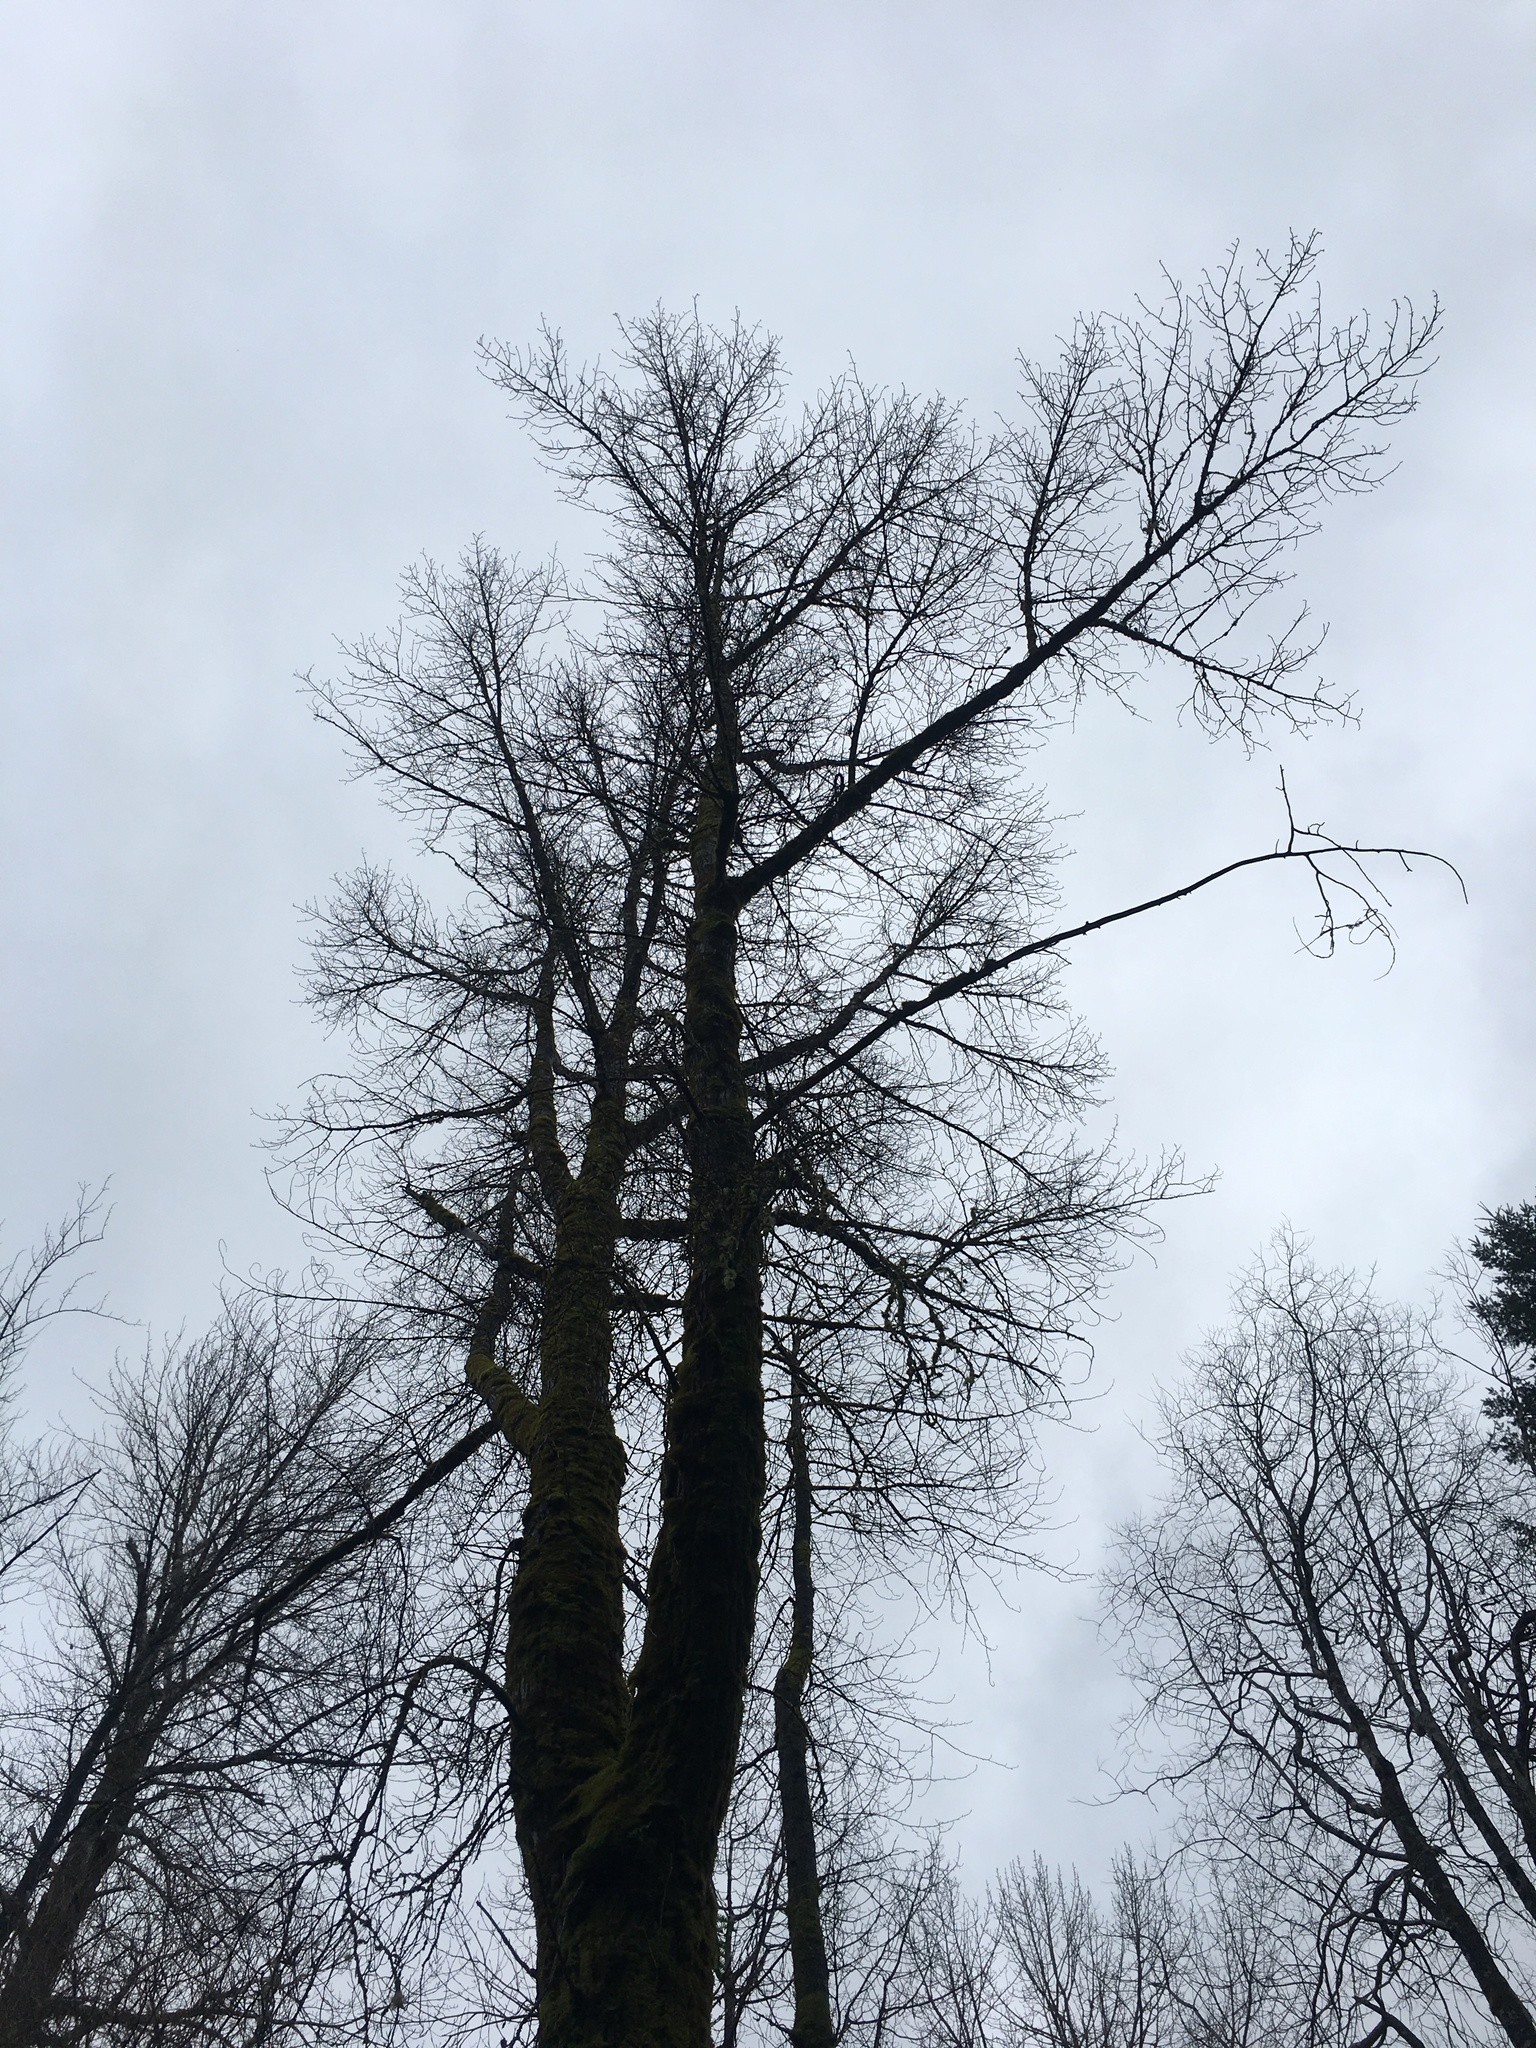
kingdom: Plantae
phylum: Tracheophyta
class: Magnoliopsida
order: Malpighiales
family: Salicaceae
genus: Populus
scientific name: Populus trichocarpa
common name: Black cottonwood
